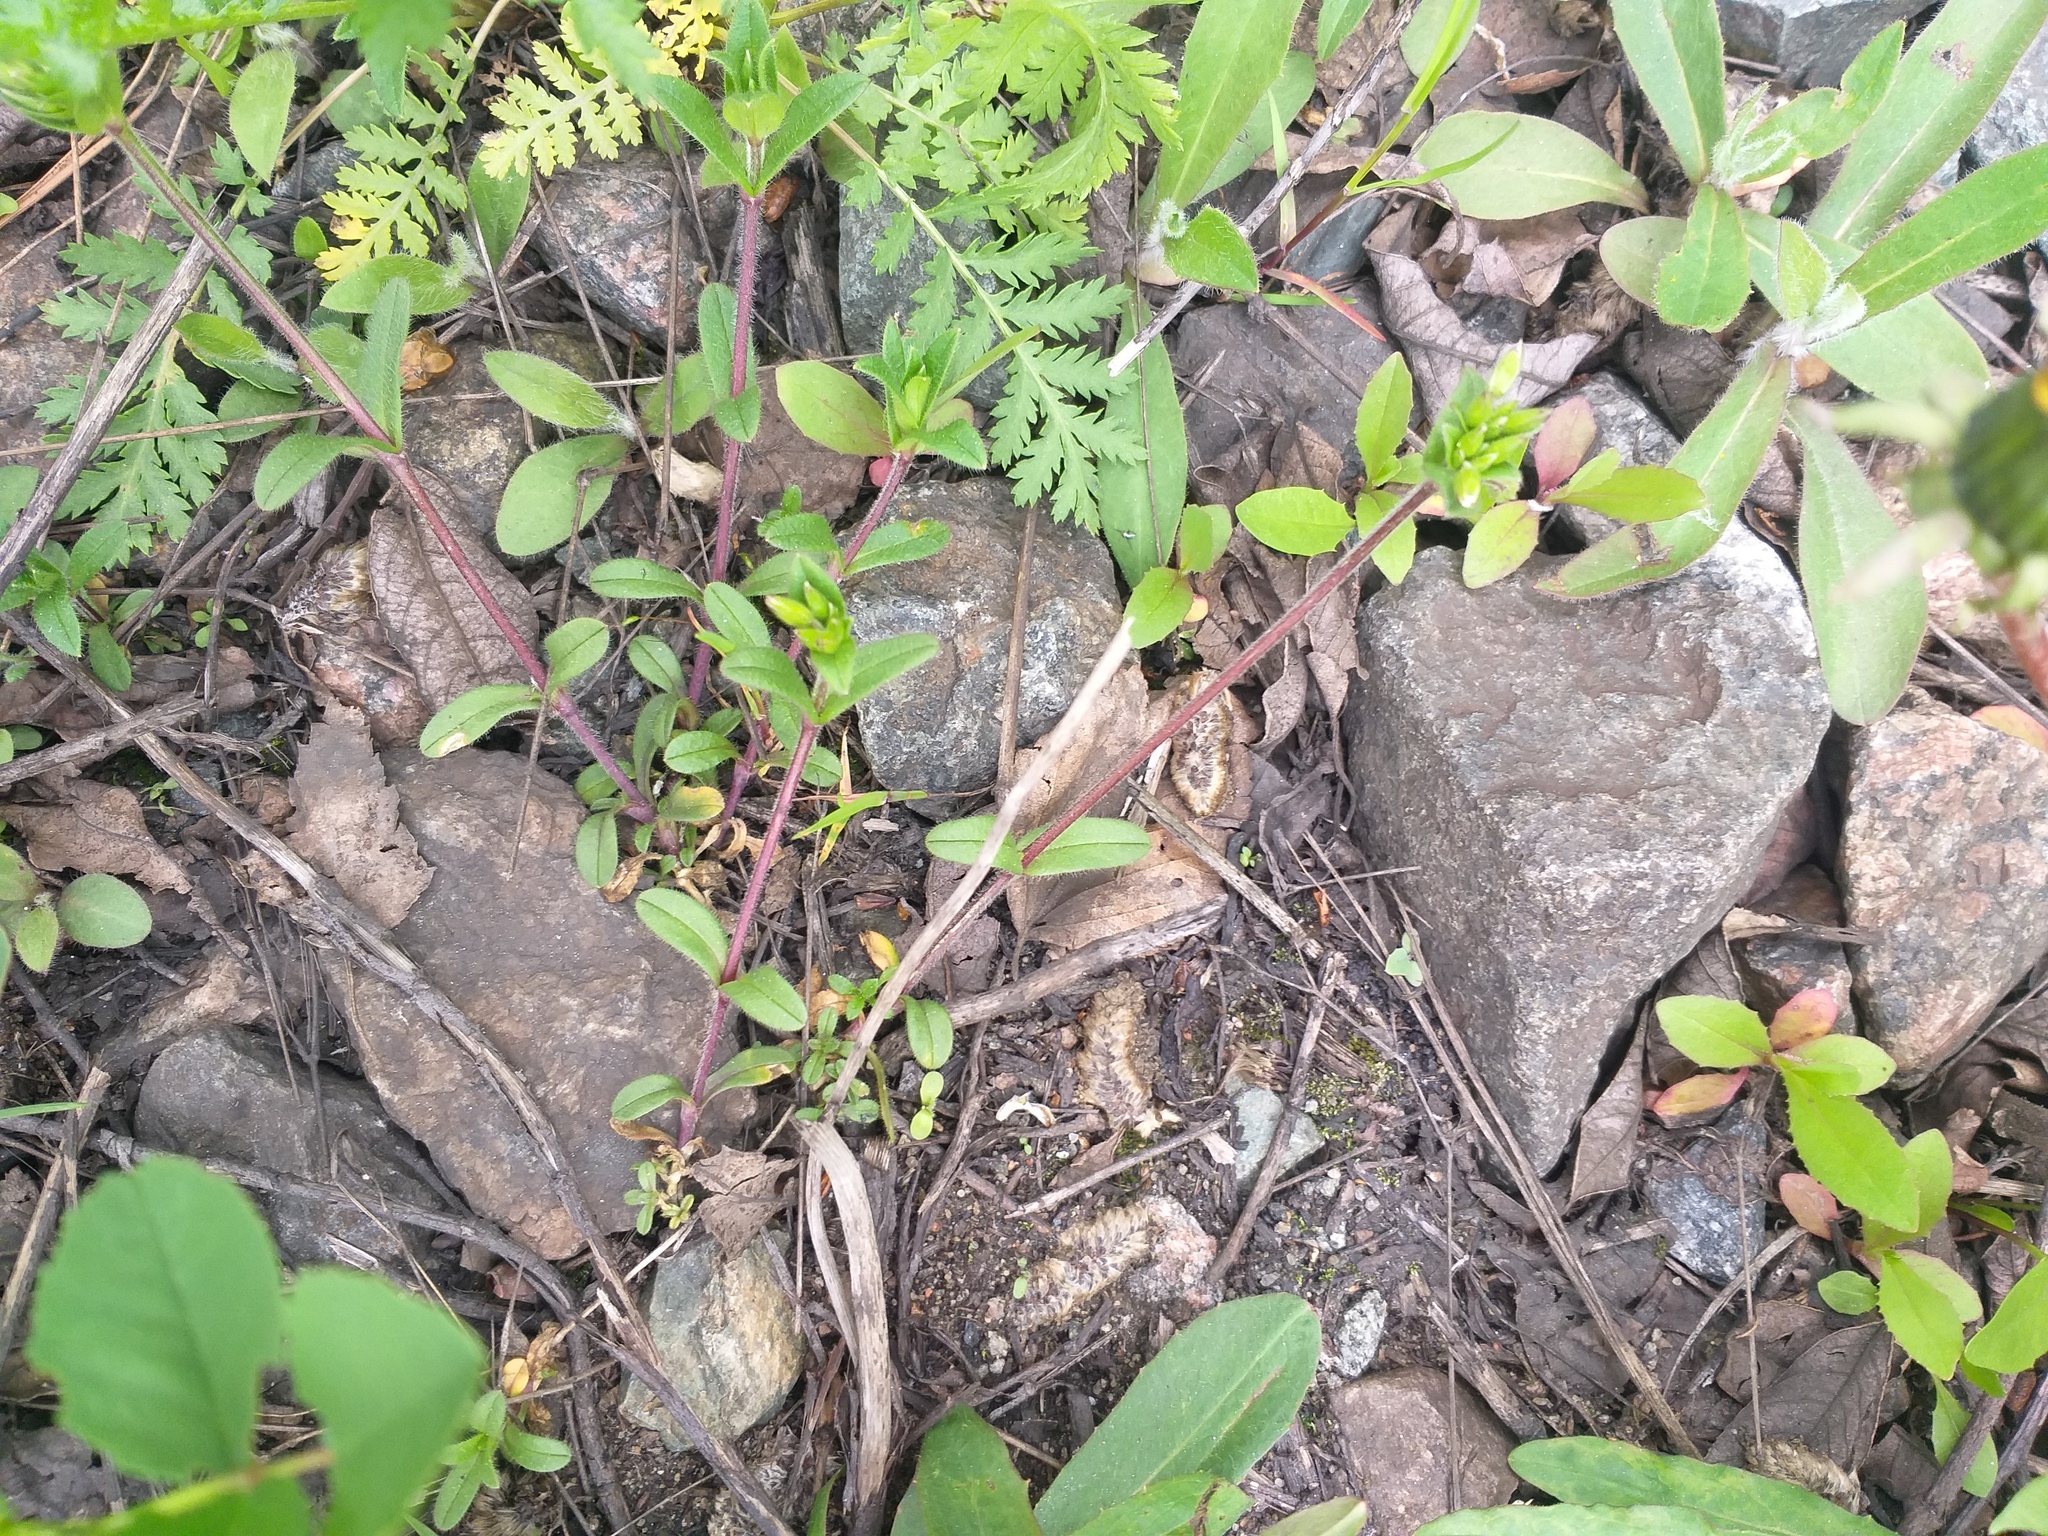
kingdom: Plantae
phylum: Tracheophyta
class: Magnoliopsida
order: Caryophyllales
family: Caryophyllaceae
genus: Cerastium
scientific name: Cerastium holosteoides
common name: Big chickweed
